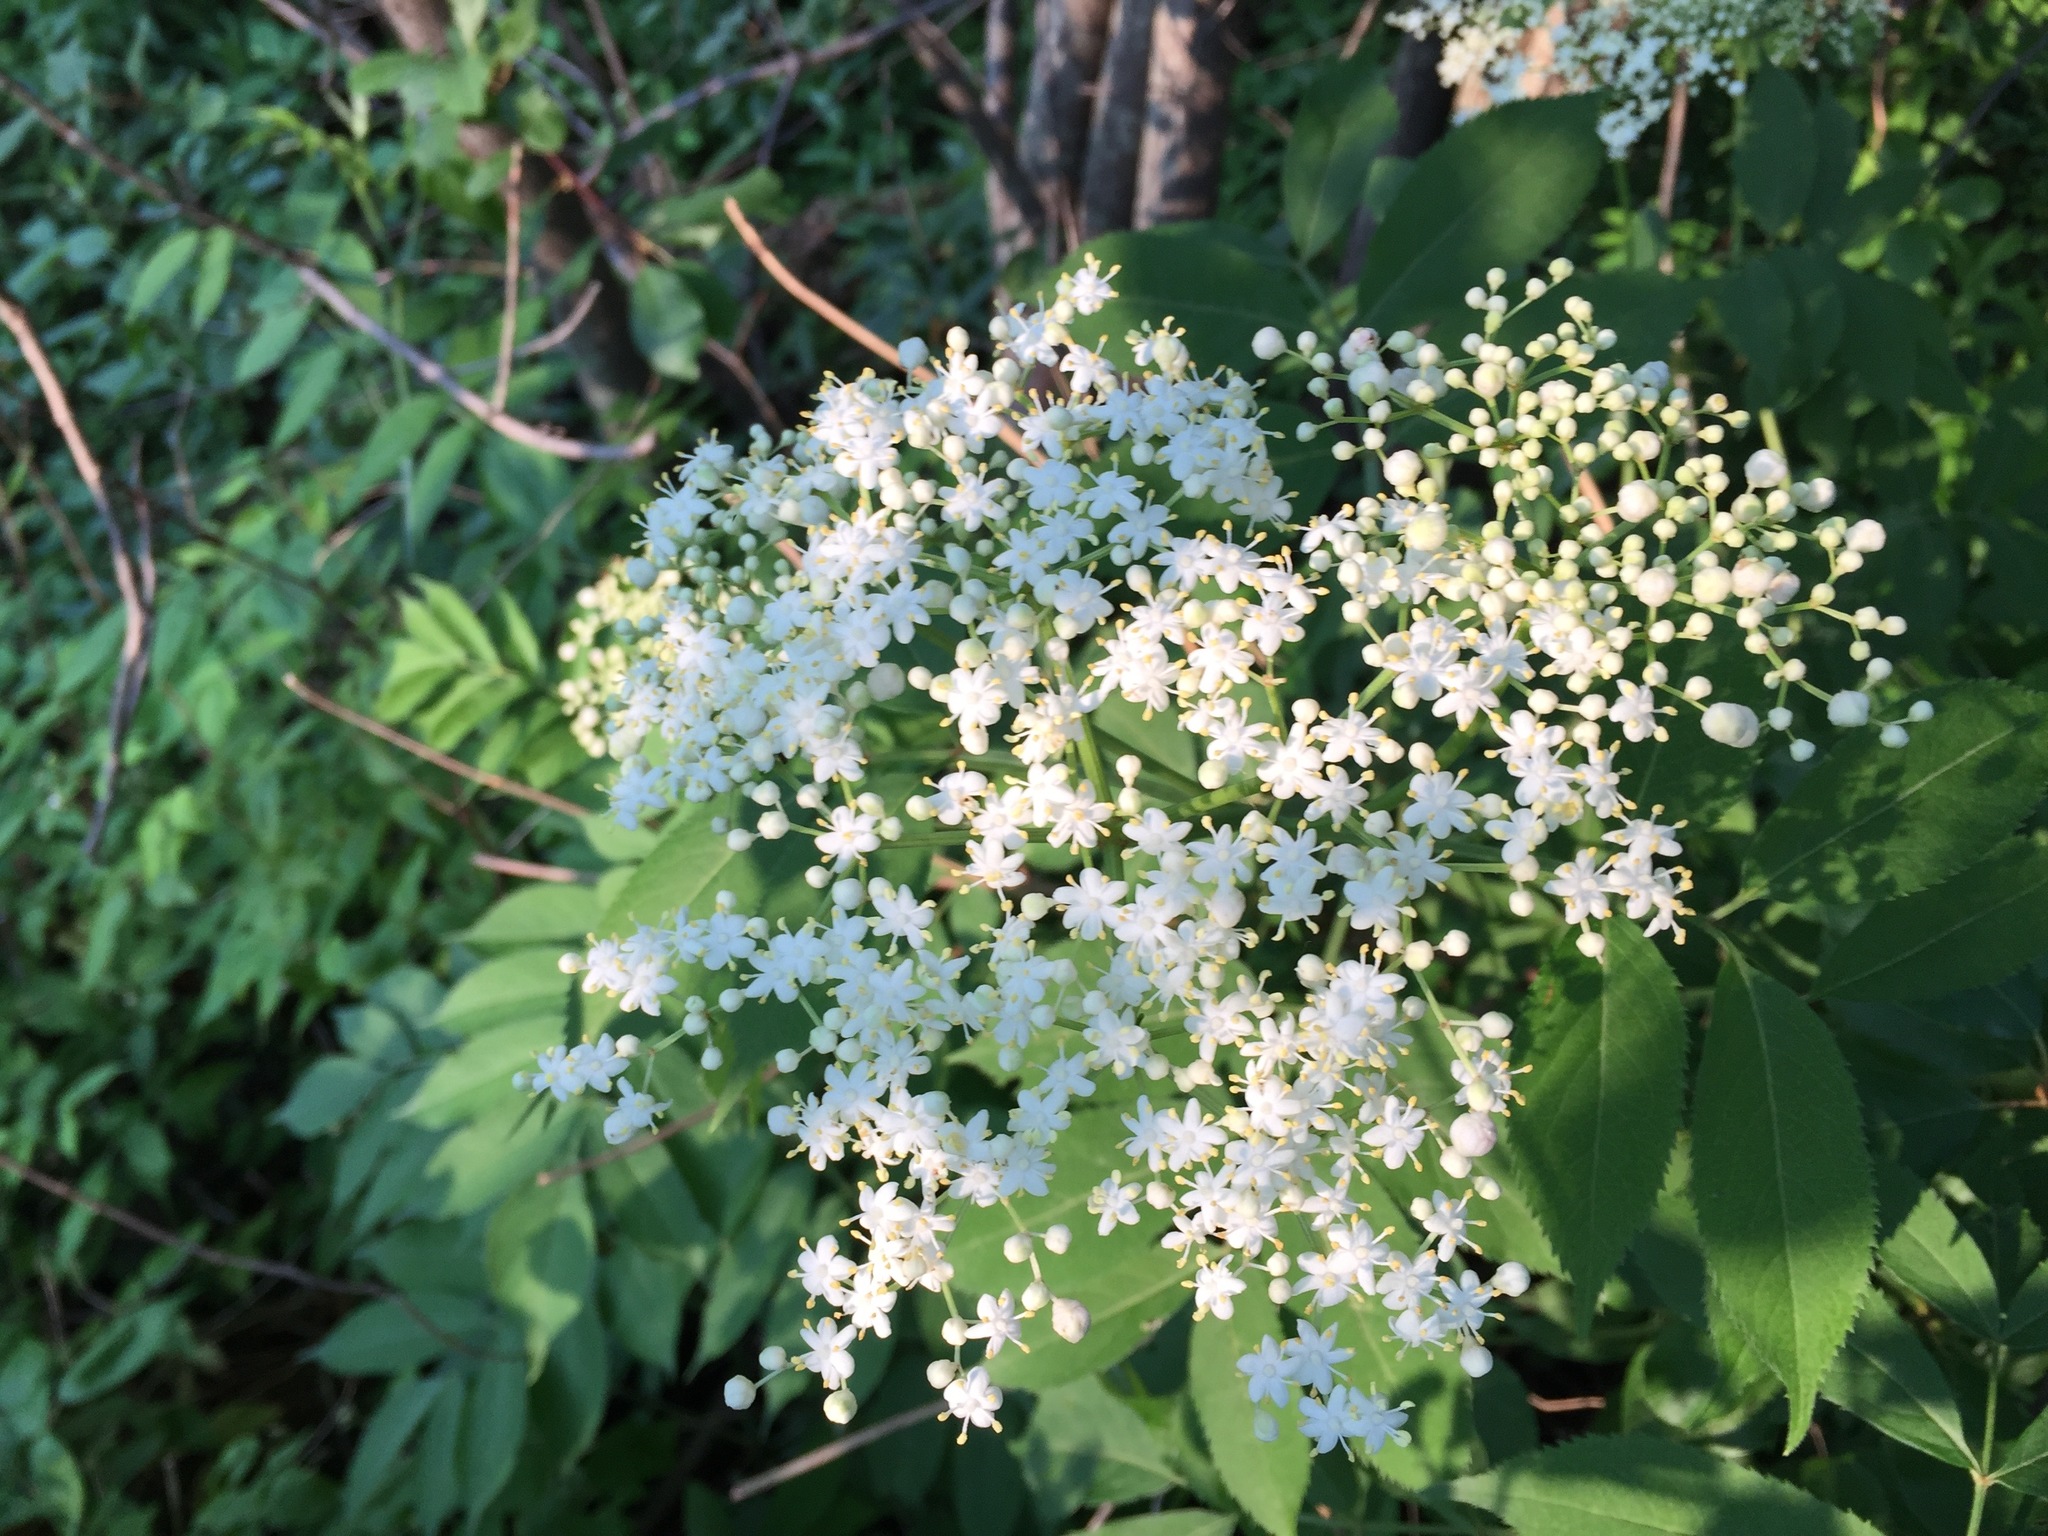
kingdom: Plantae
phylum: Tracheophyta
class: Magnoliopsida
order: Dipsacales
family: Viburnaceae
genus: Sambucus
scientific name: Sambucus canadensis
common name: American elder
